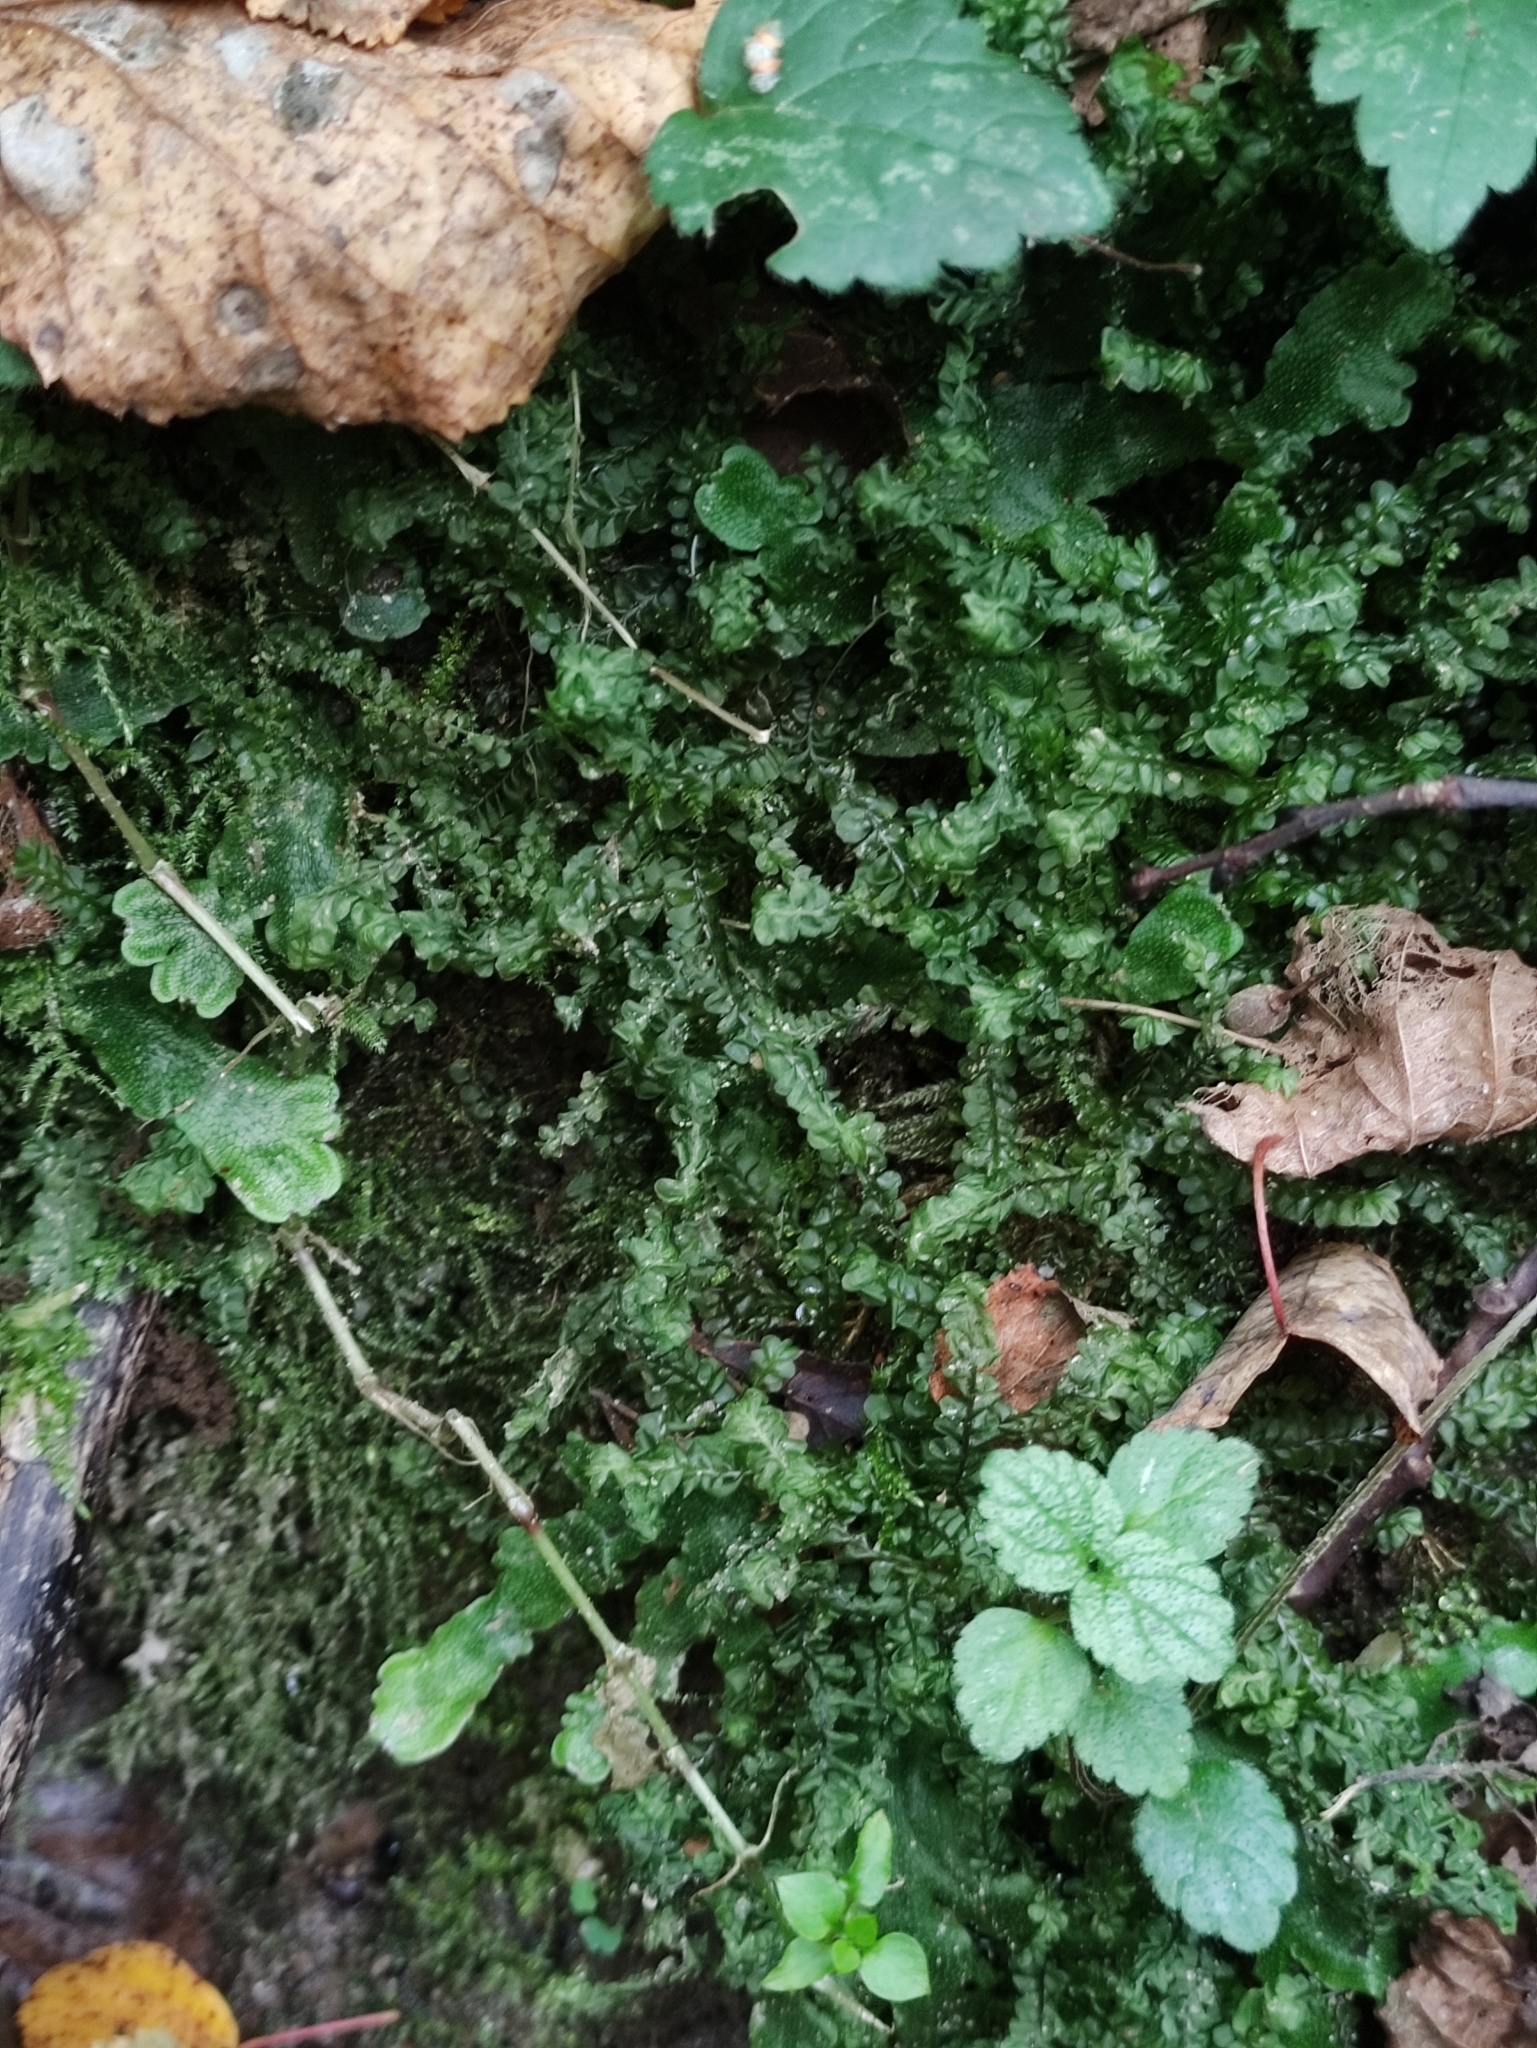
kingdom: Plantae
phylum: Marchantiophyta
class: Jungermanniopsida
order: Jungermanniales
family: Plagiochilaceae
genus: Plagiochila
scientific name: Plagiochila asplenioides
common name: Greater featherwort
